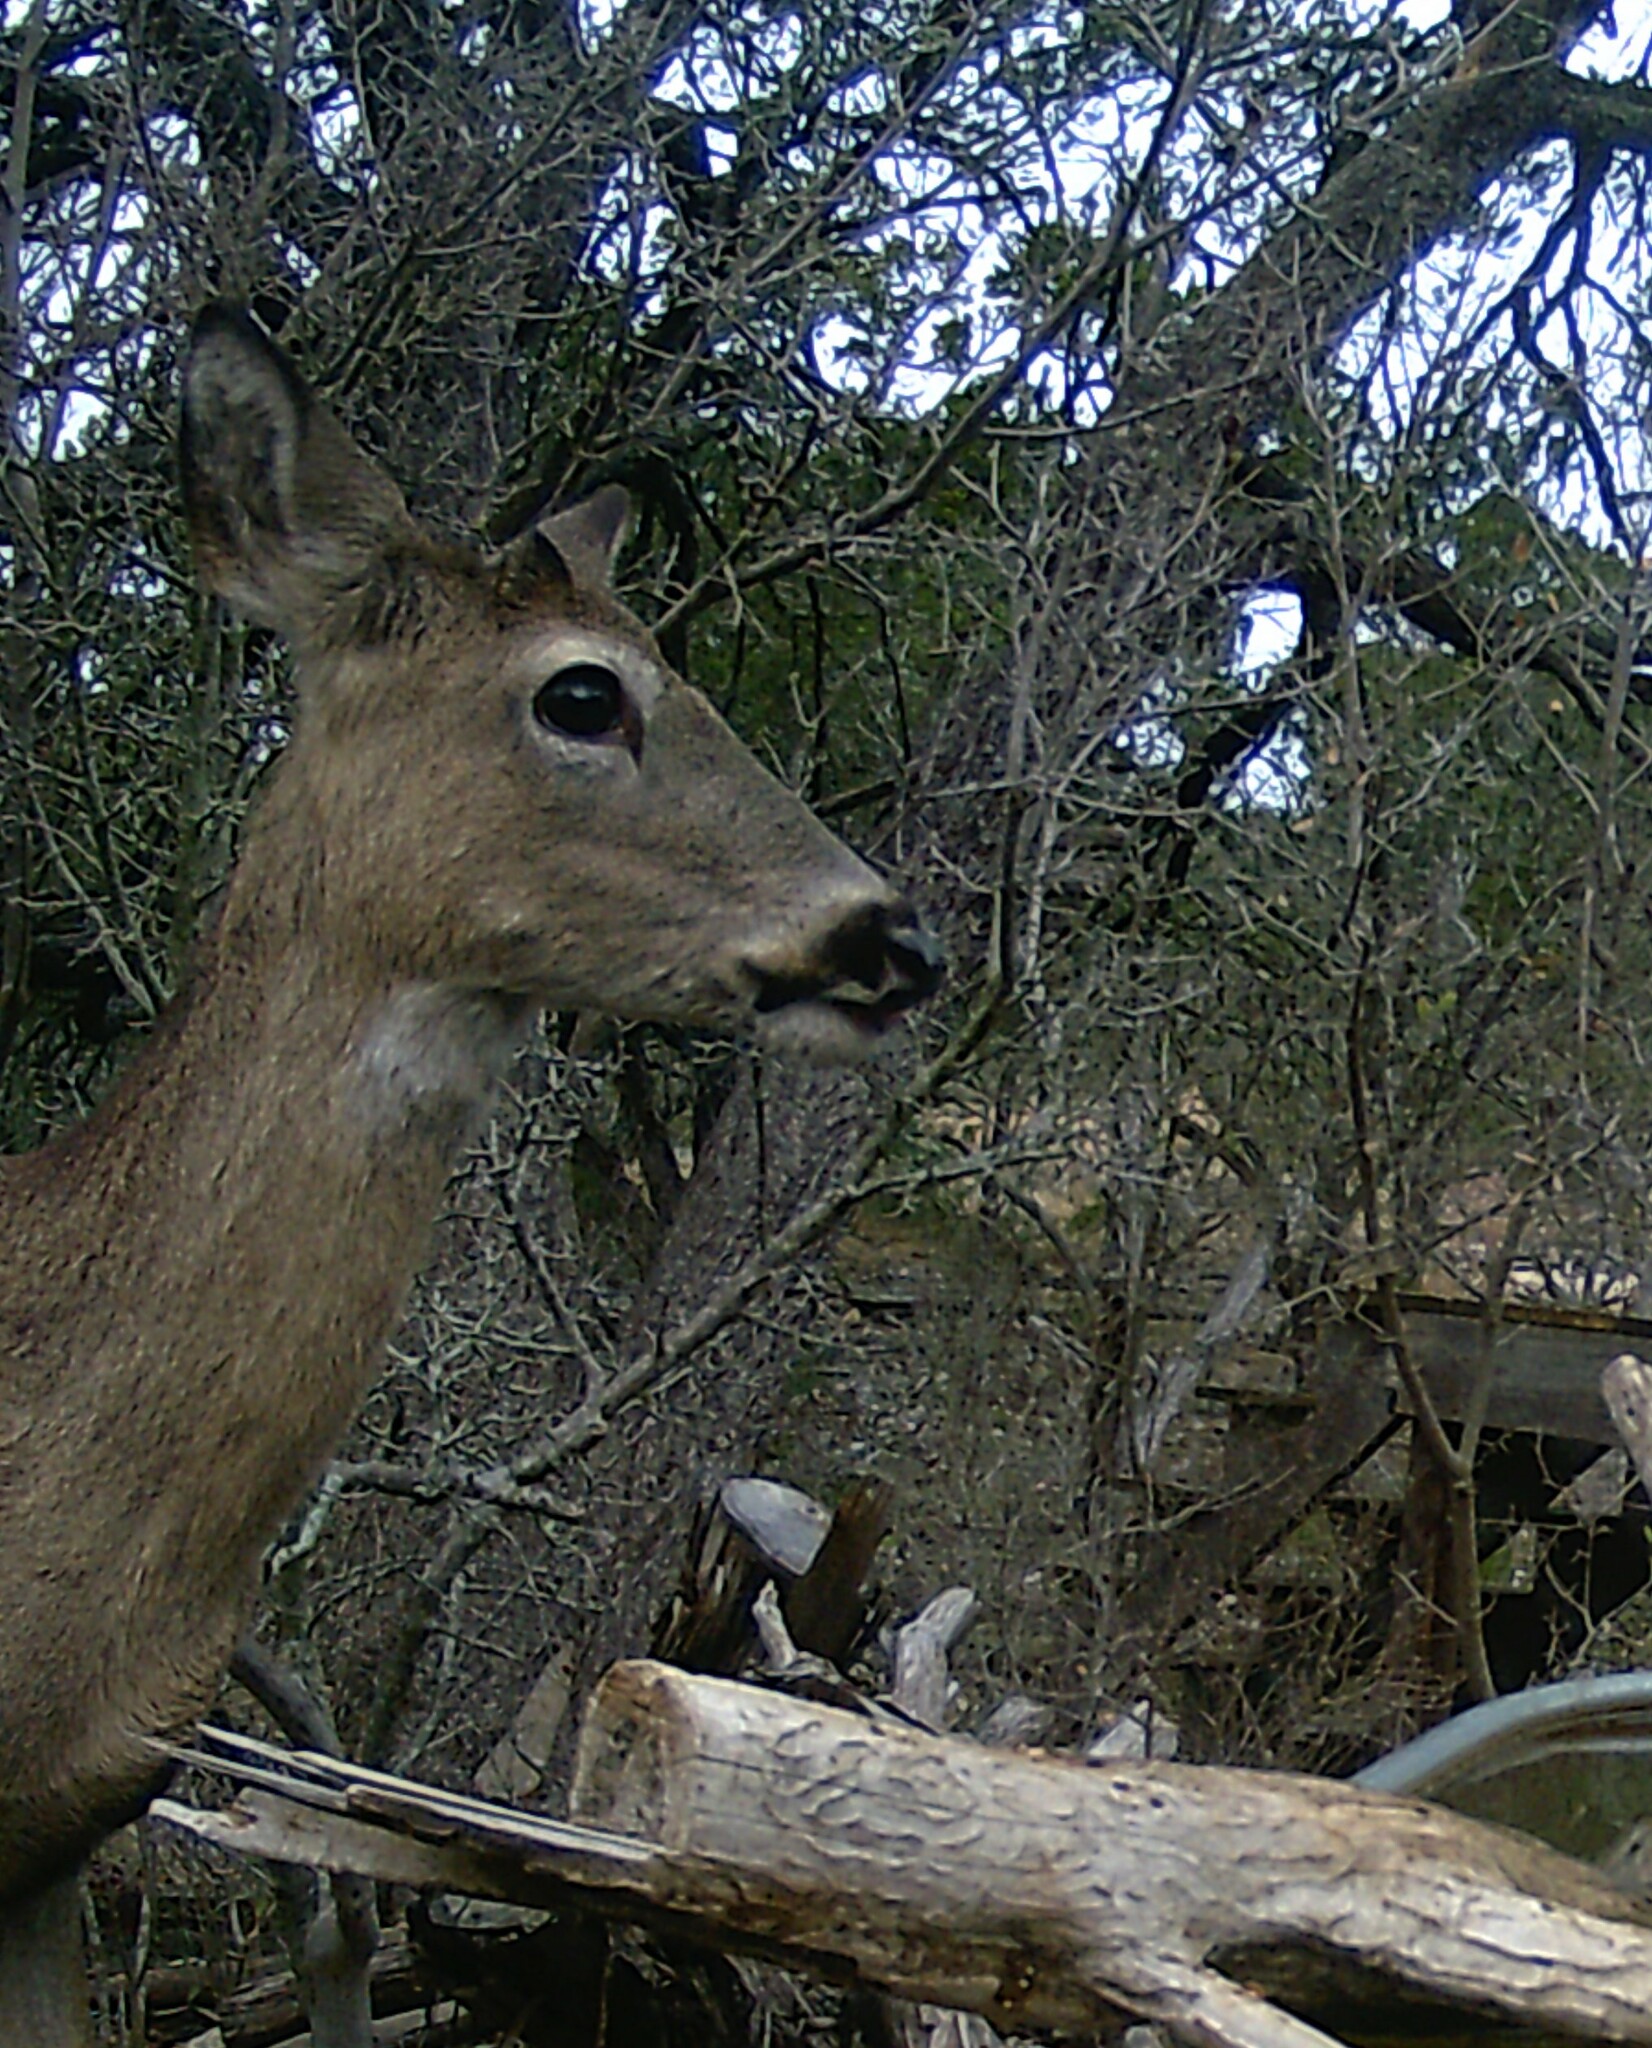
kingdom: Animalia
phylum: Chordata
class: Mammalia
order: Artiodactyla
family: Cervidae
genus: Odocoileus
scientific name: Odocoileus virginianus
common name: White-tailed deer
